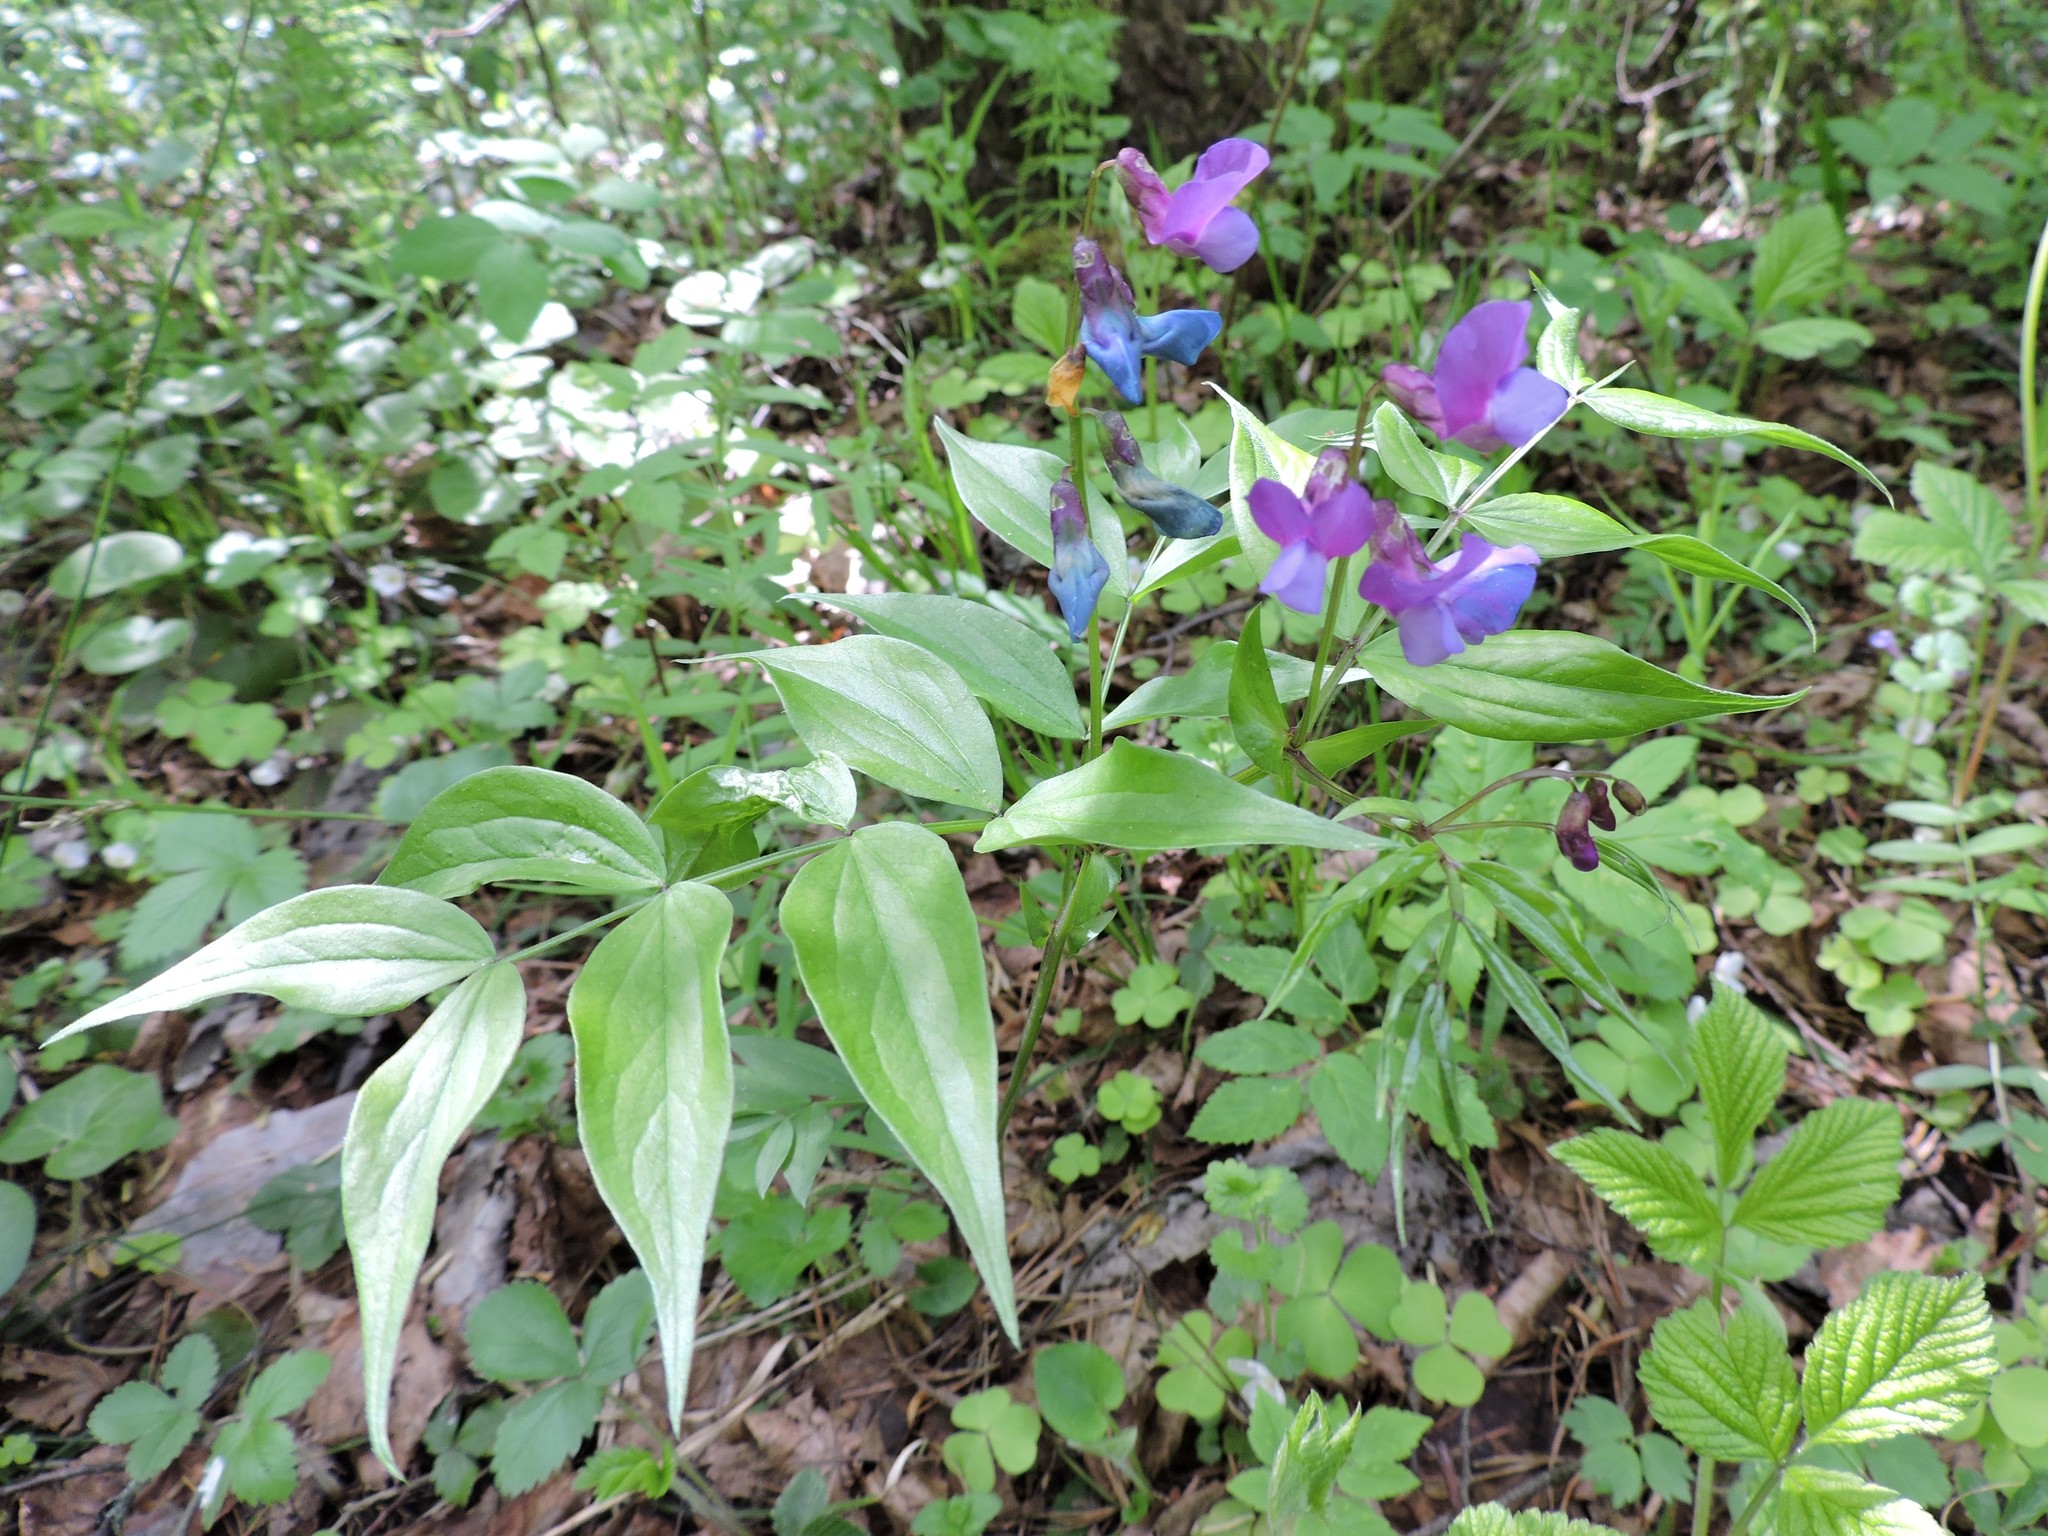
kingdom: Plantae
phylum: Tracheophyta
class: Magnoliopsida
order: Fabales
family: Fabaceae
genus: Lathyrus
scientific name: Lathyrus vernus
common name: Spring pea
